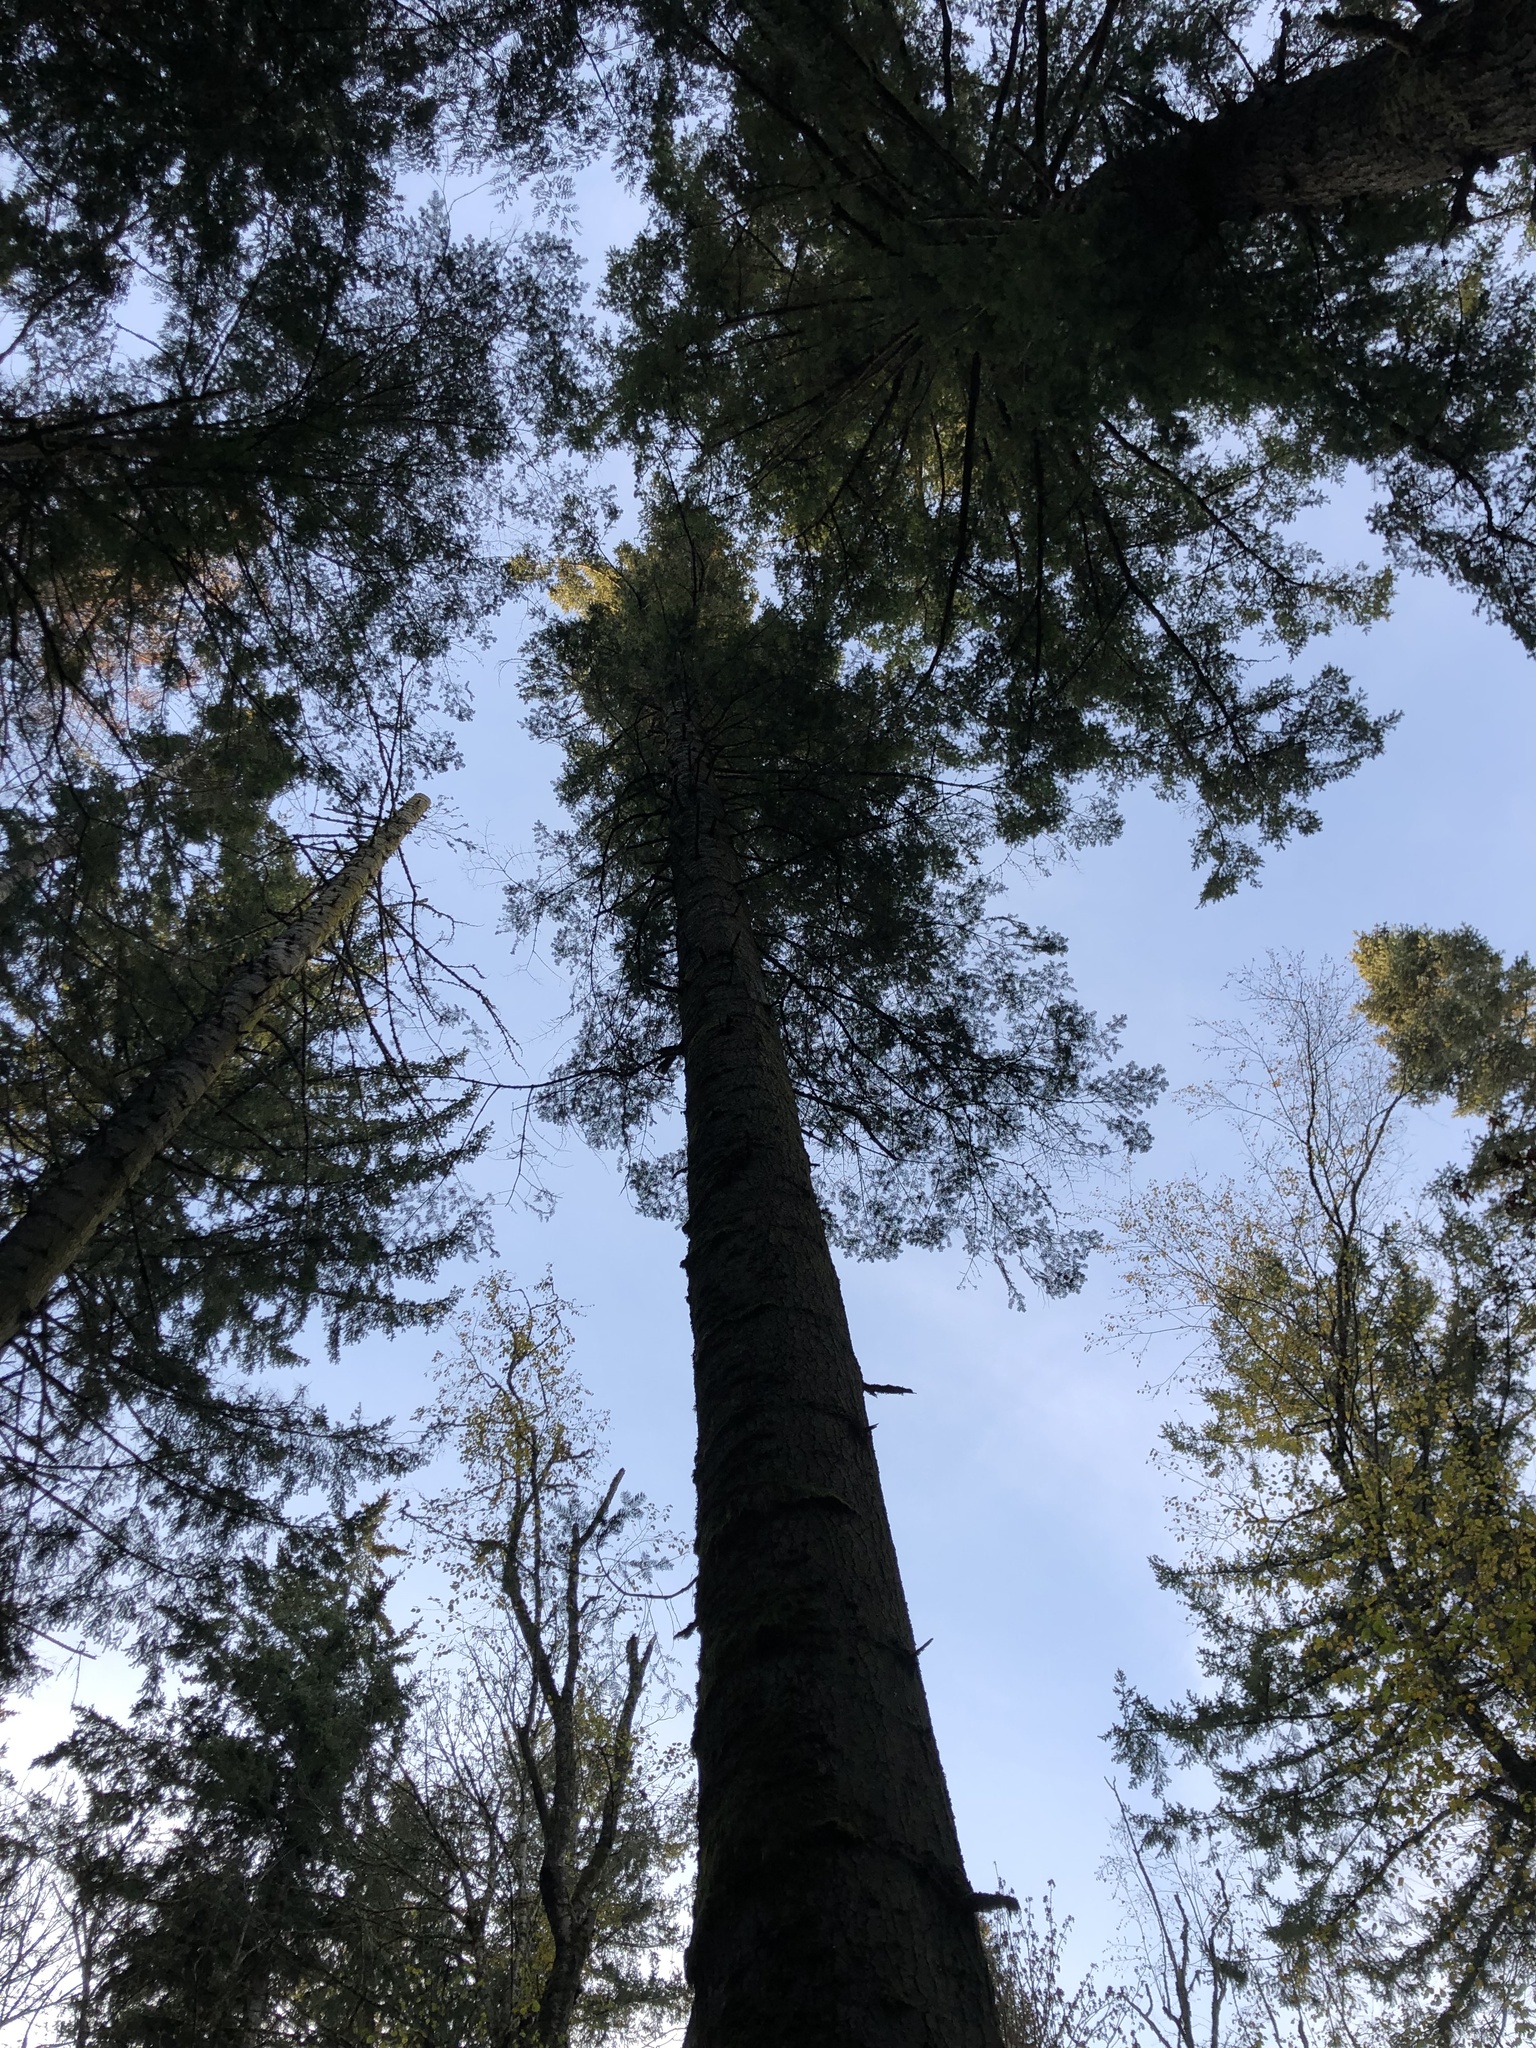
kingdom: Plantae
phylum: Tracheophyta
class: Pinopsida
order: Pinales
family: Pinaceae
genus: Abies
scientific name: Abies grandis
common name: Giant fir
